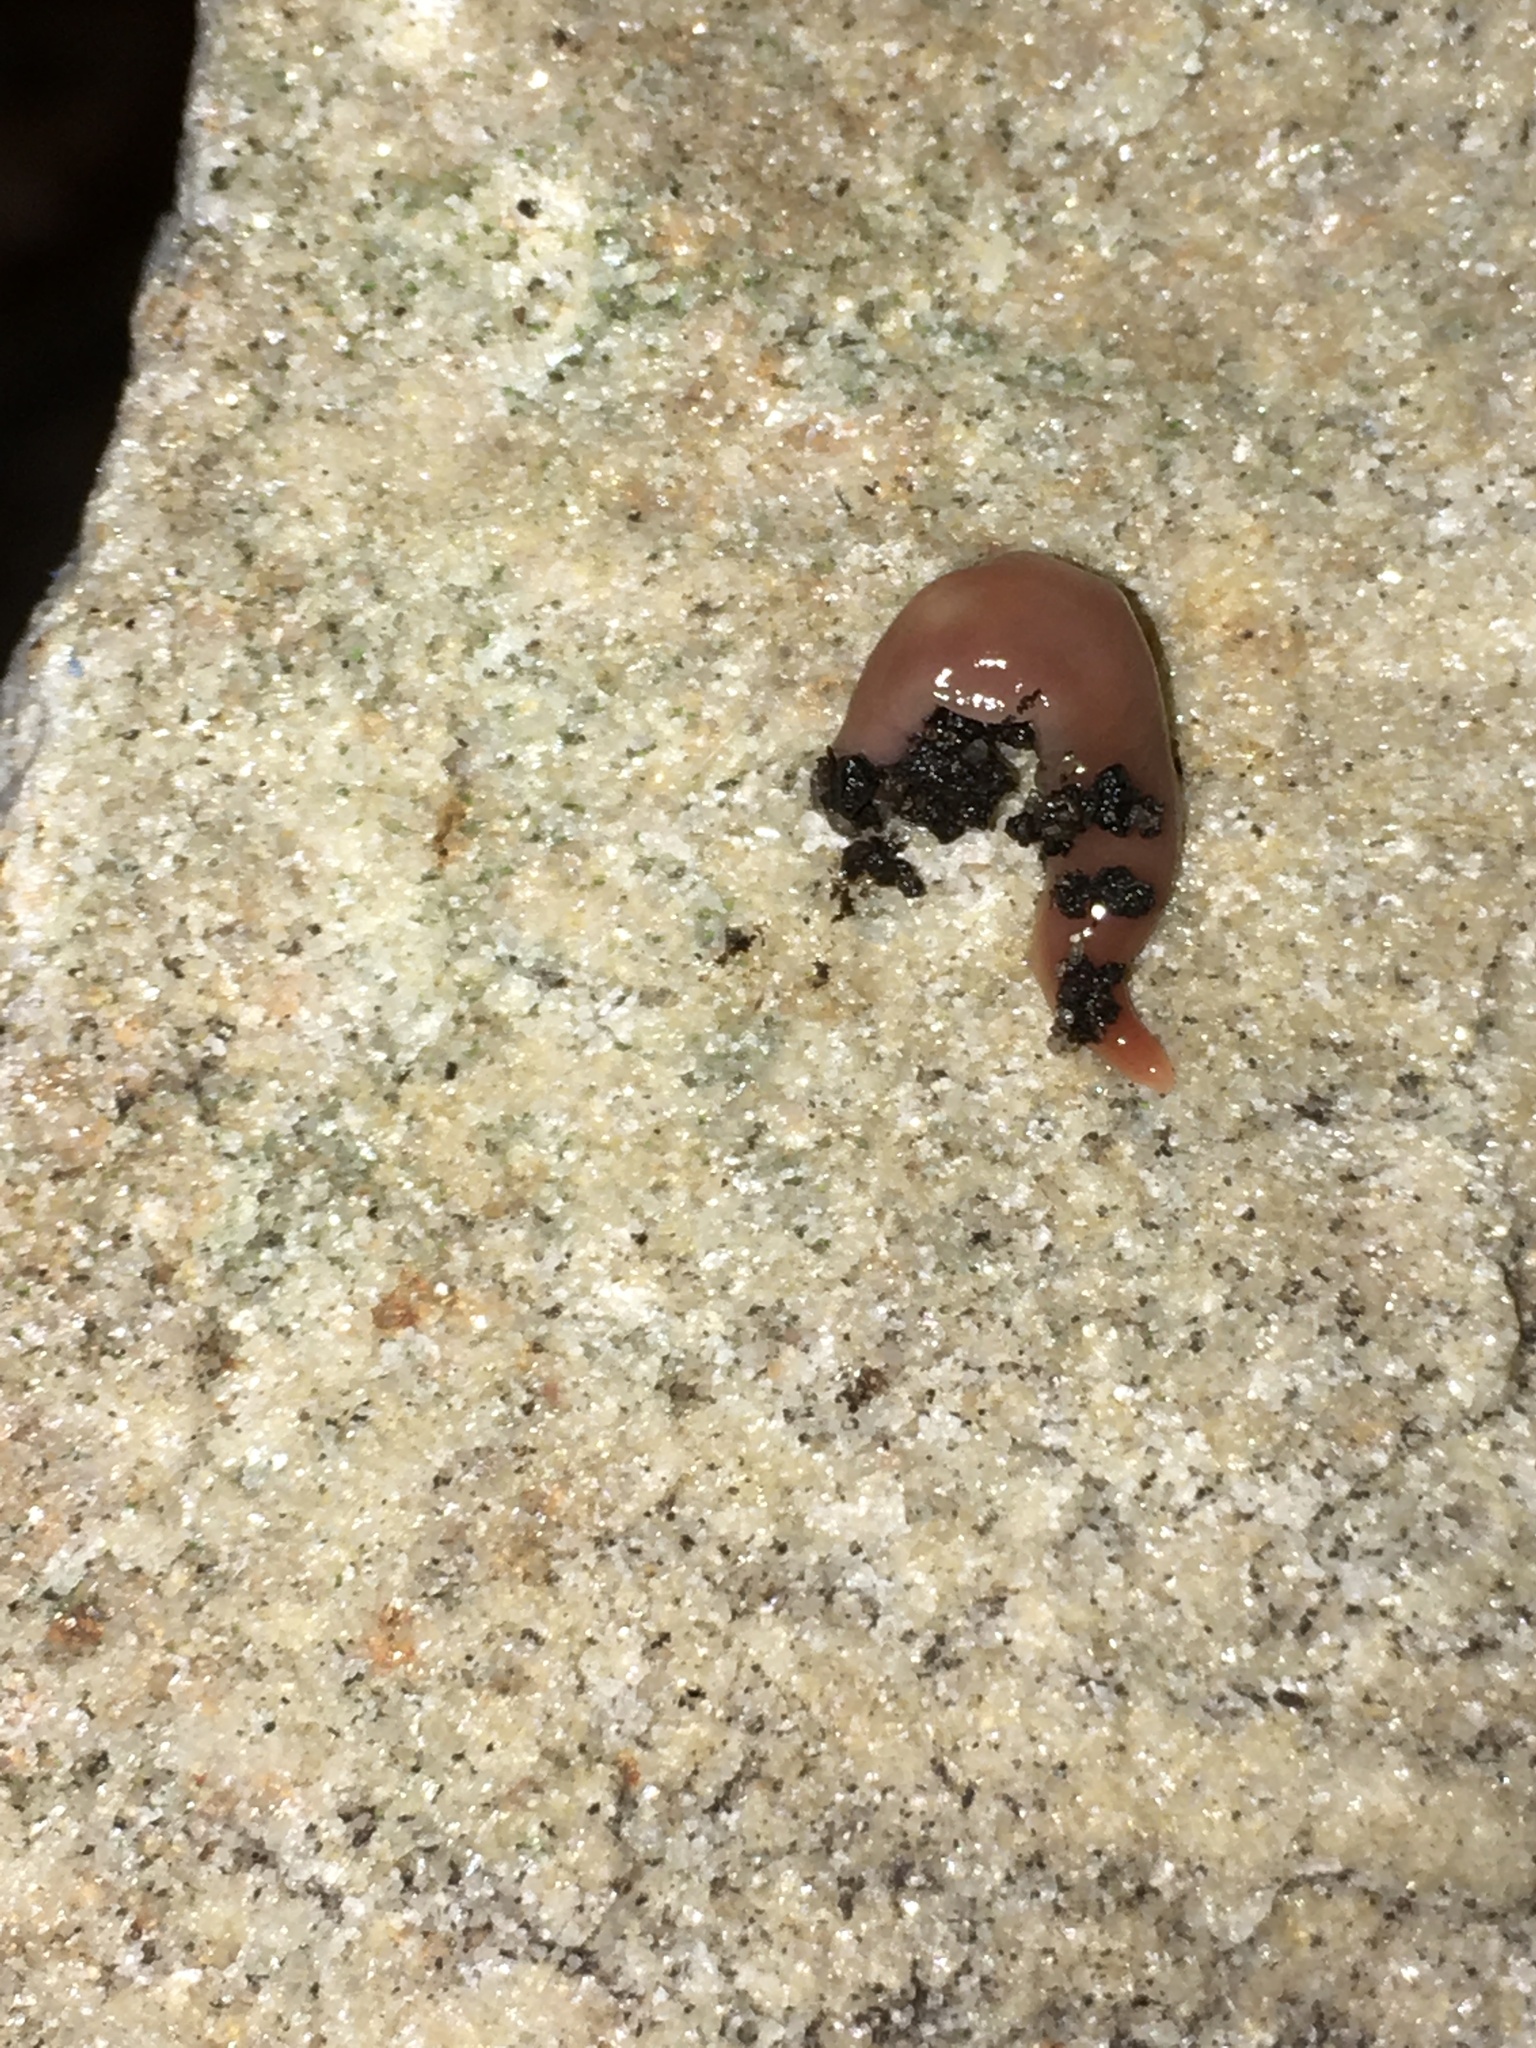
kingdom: Animalia
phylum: Platyhelminthes
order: Tricladida
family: Geoplanidae
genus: Australoplana
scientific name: Australoplana sanguinea
